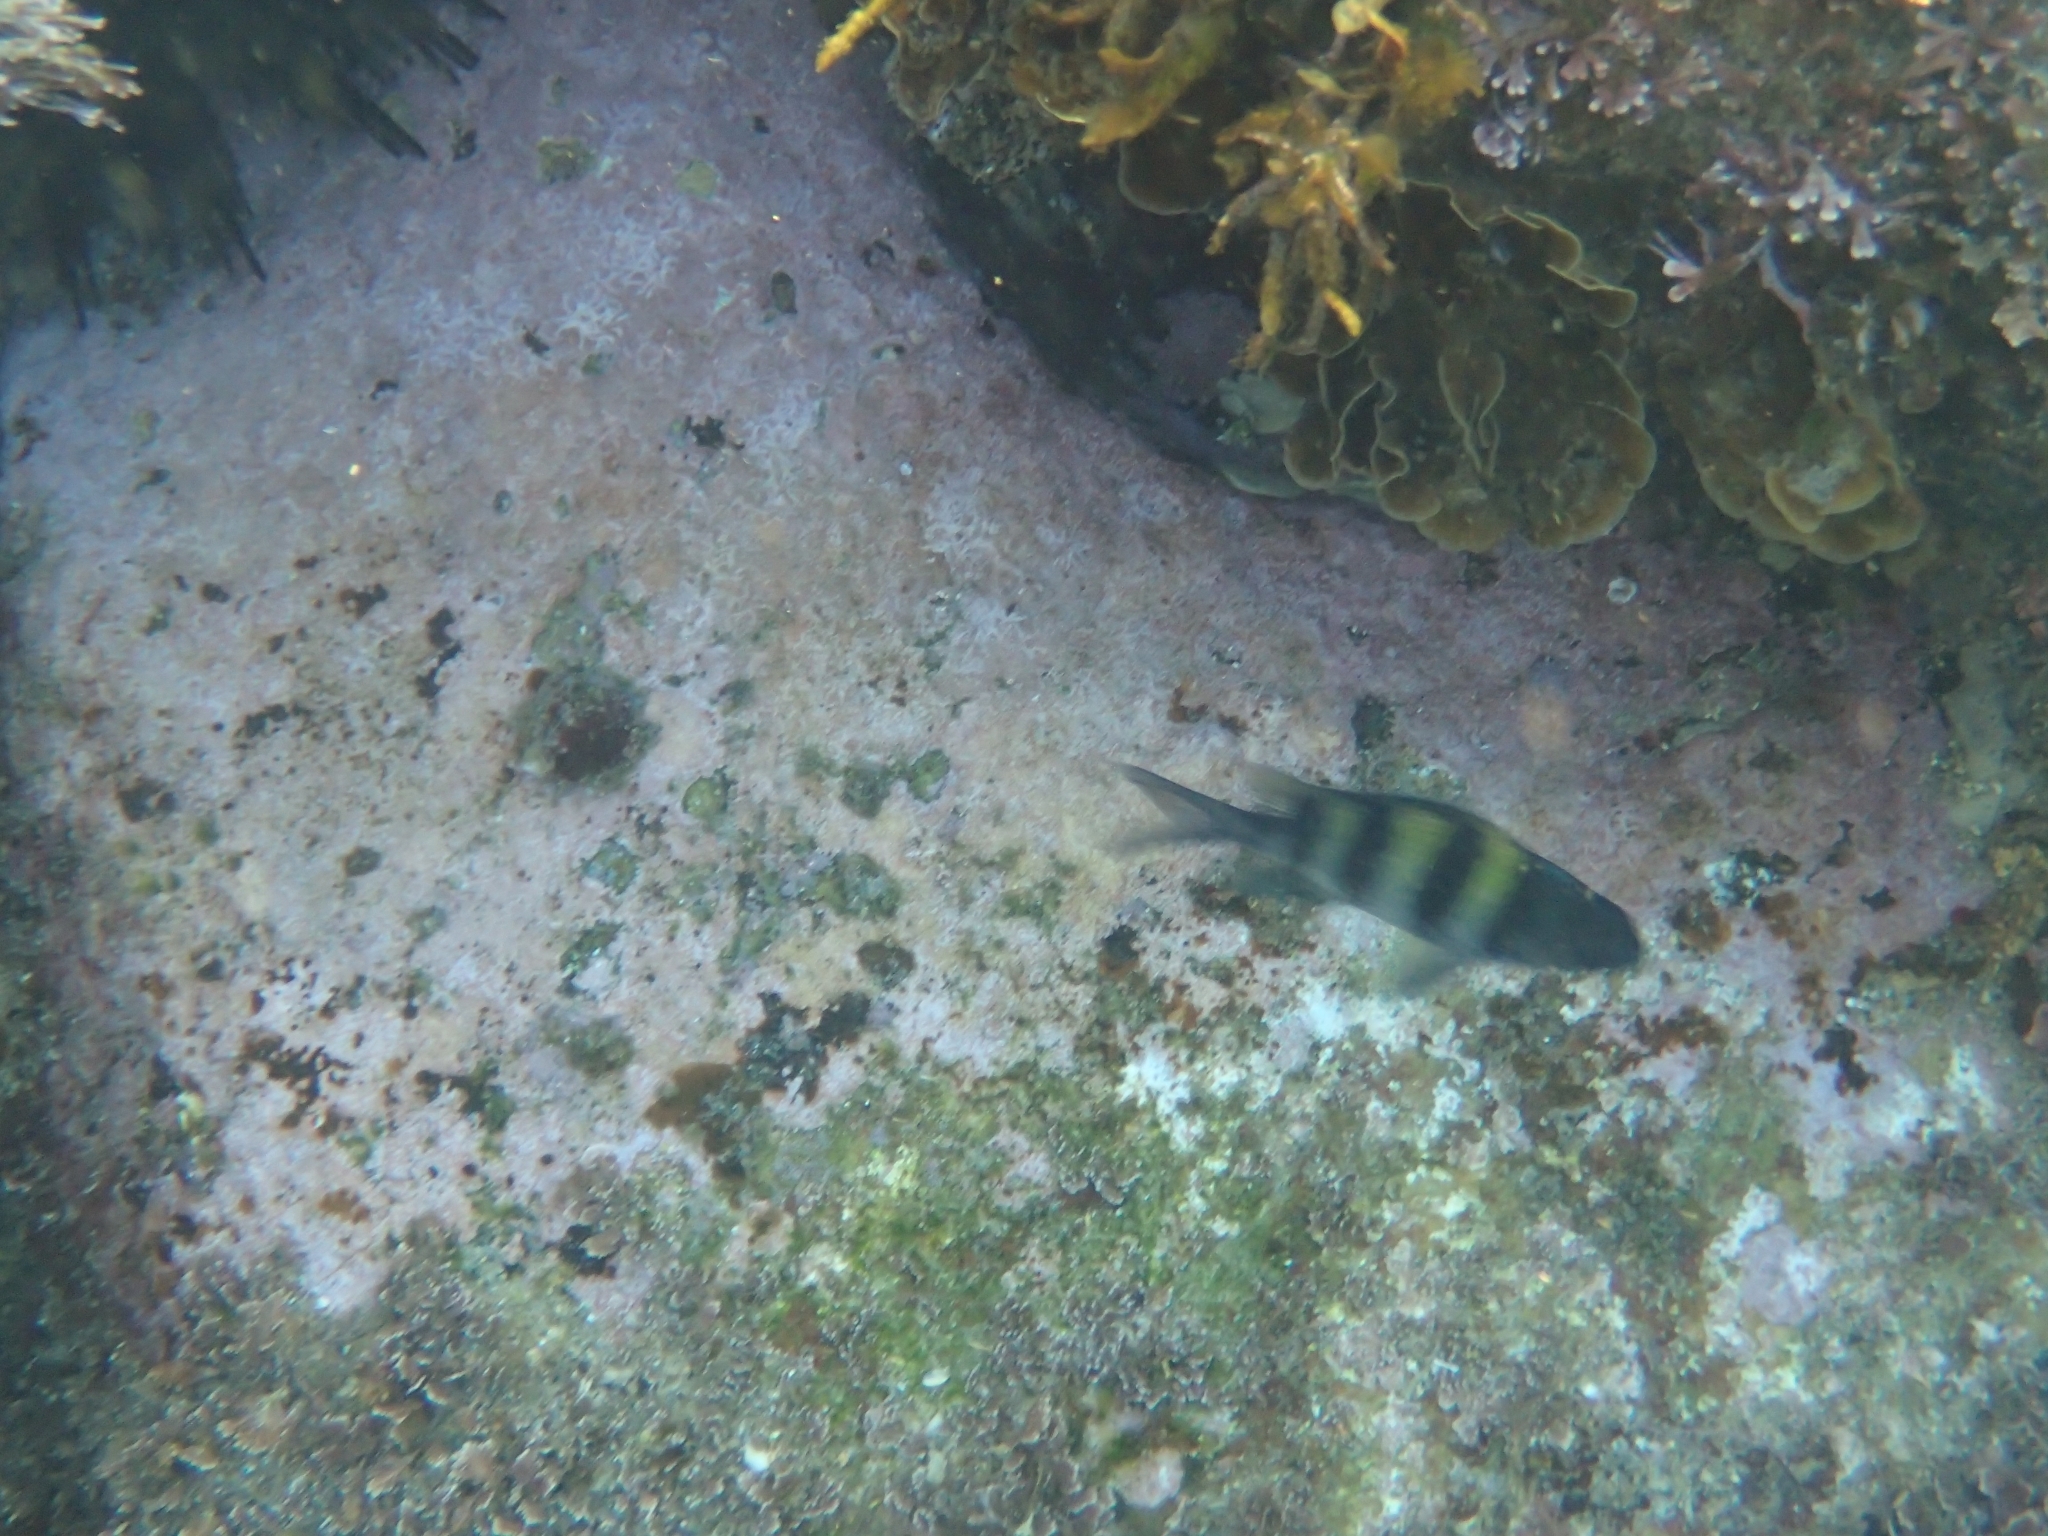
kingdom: Animalia
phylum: Chordata
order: Perciformes
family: Pomacentridae
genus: Abudefduf
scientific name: Abudefduf vaigiensis
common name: Indo-pacific sergeant
